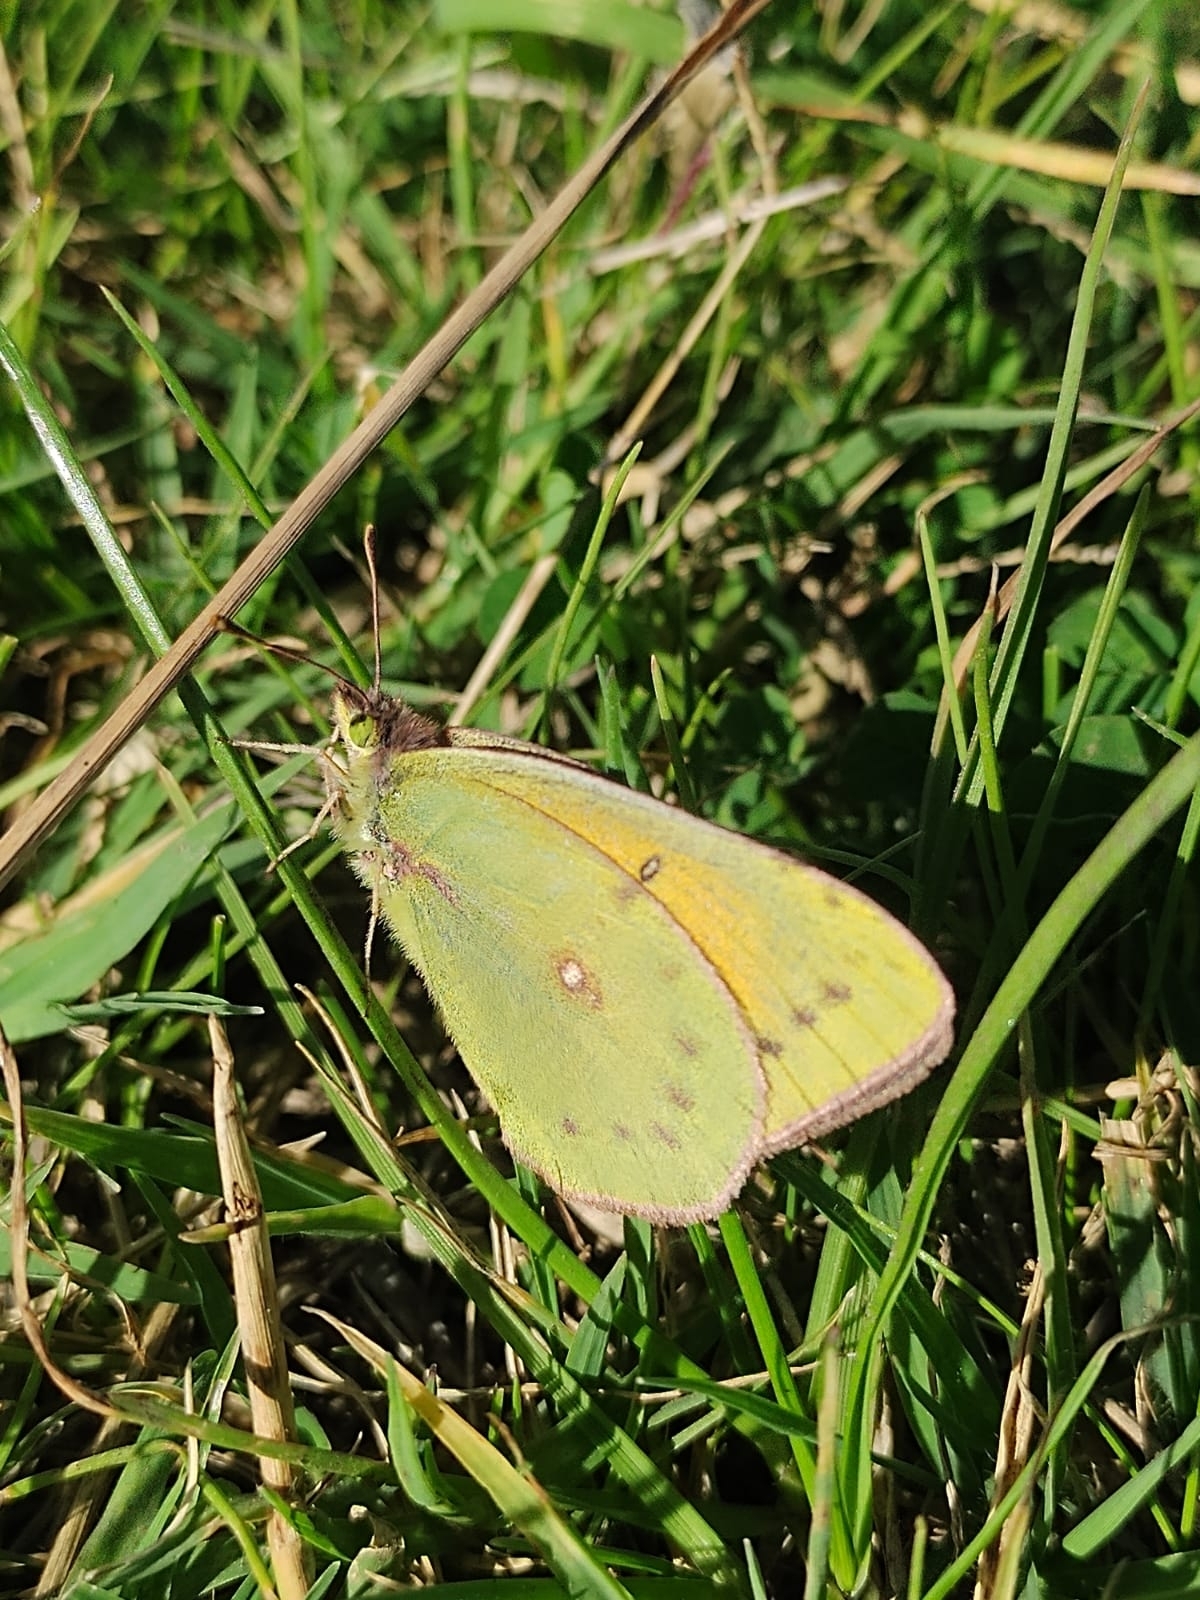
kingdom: Animalia
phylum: Arthropoda
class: Insecta
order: Lepidoptera
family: Pieridae
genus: Colias
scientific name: Colias lesbia
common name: Lesbia clouded yellow
